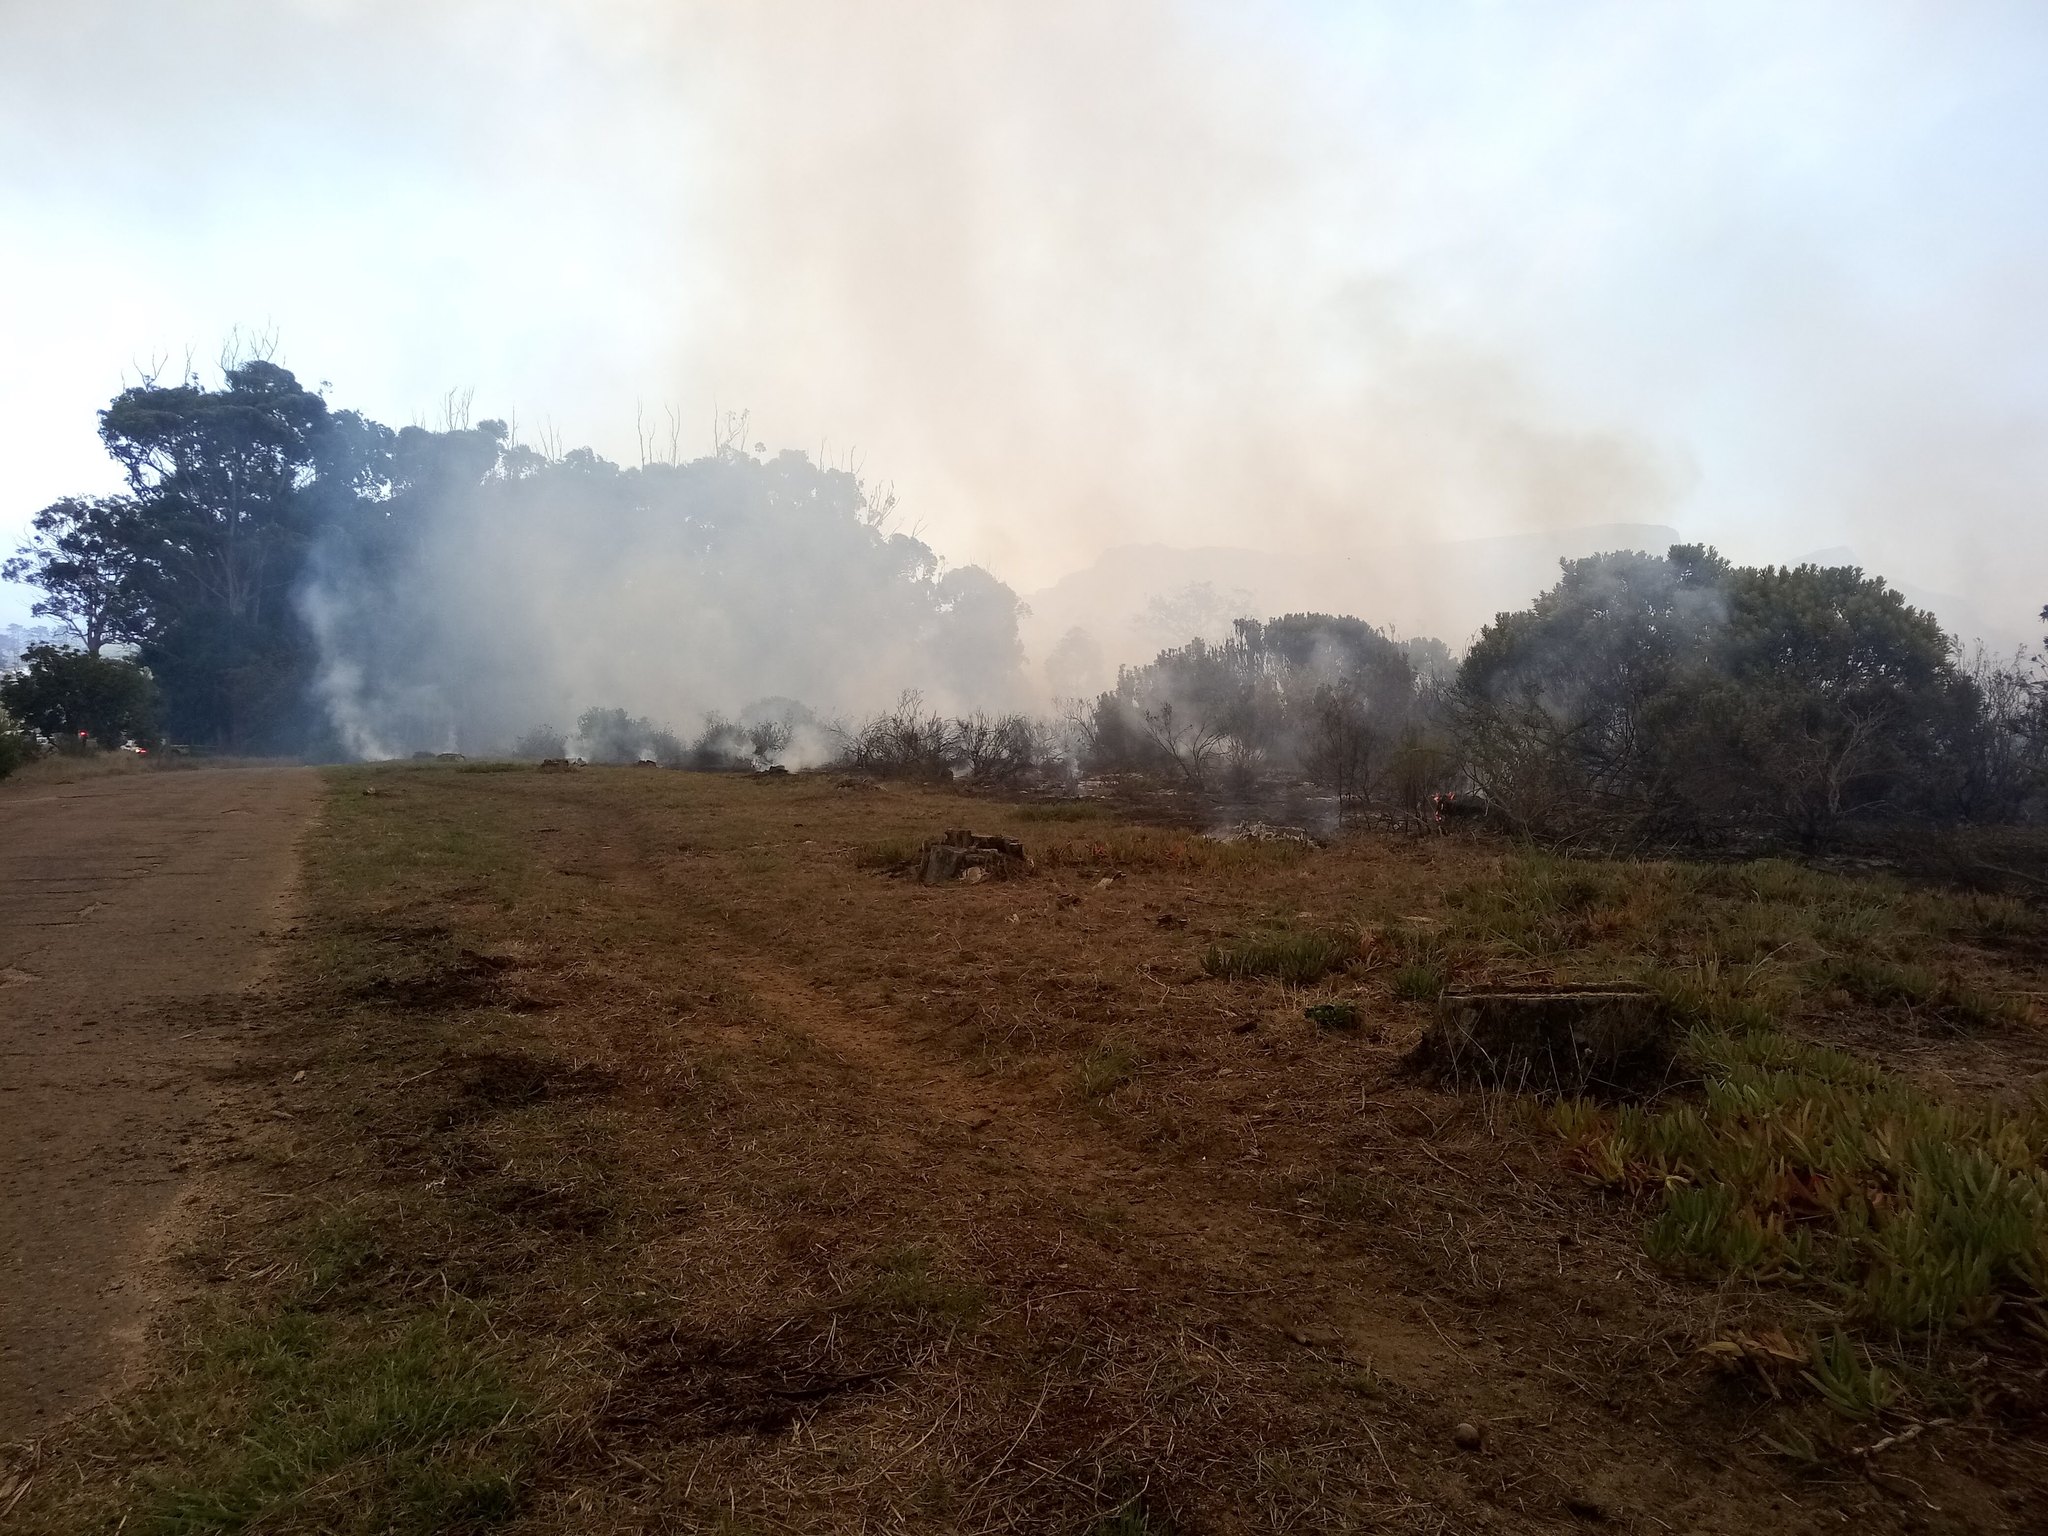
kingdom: Plantae
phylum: Tracheophyta
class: Magnoliopsida
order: Asterales
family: Asteraceae
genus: Osteospermum
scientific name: Osteospermum moniliferum
